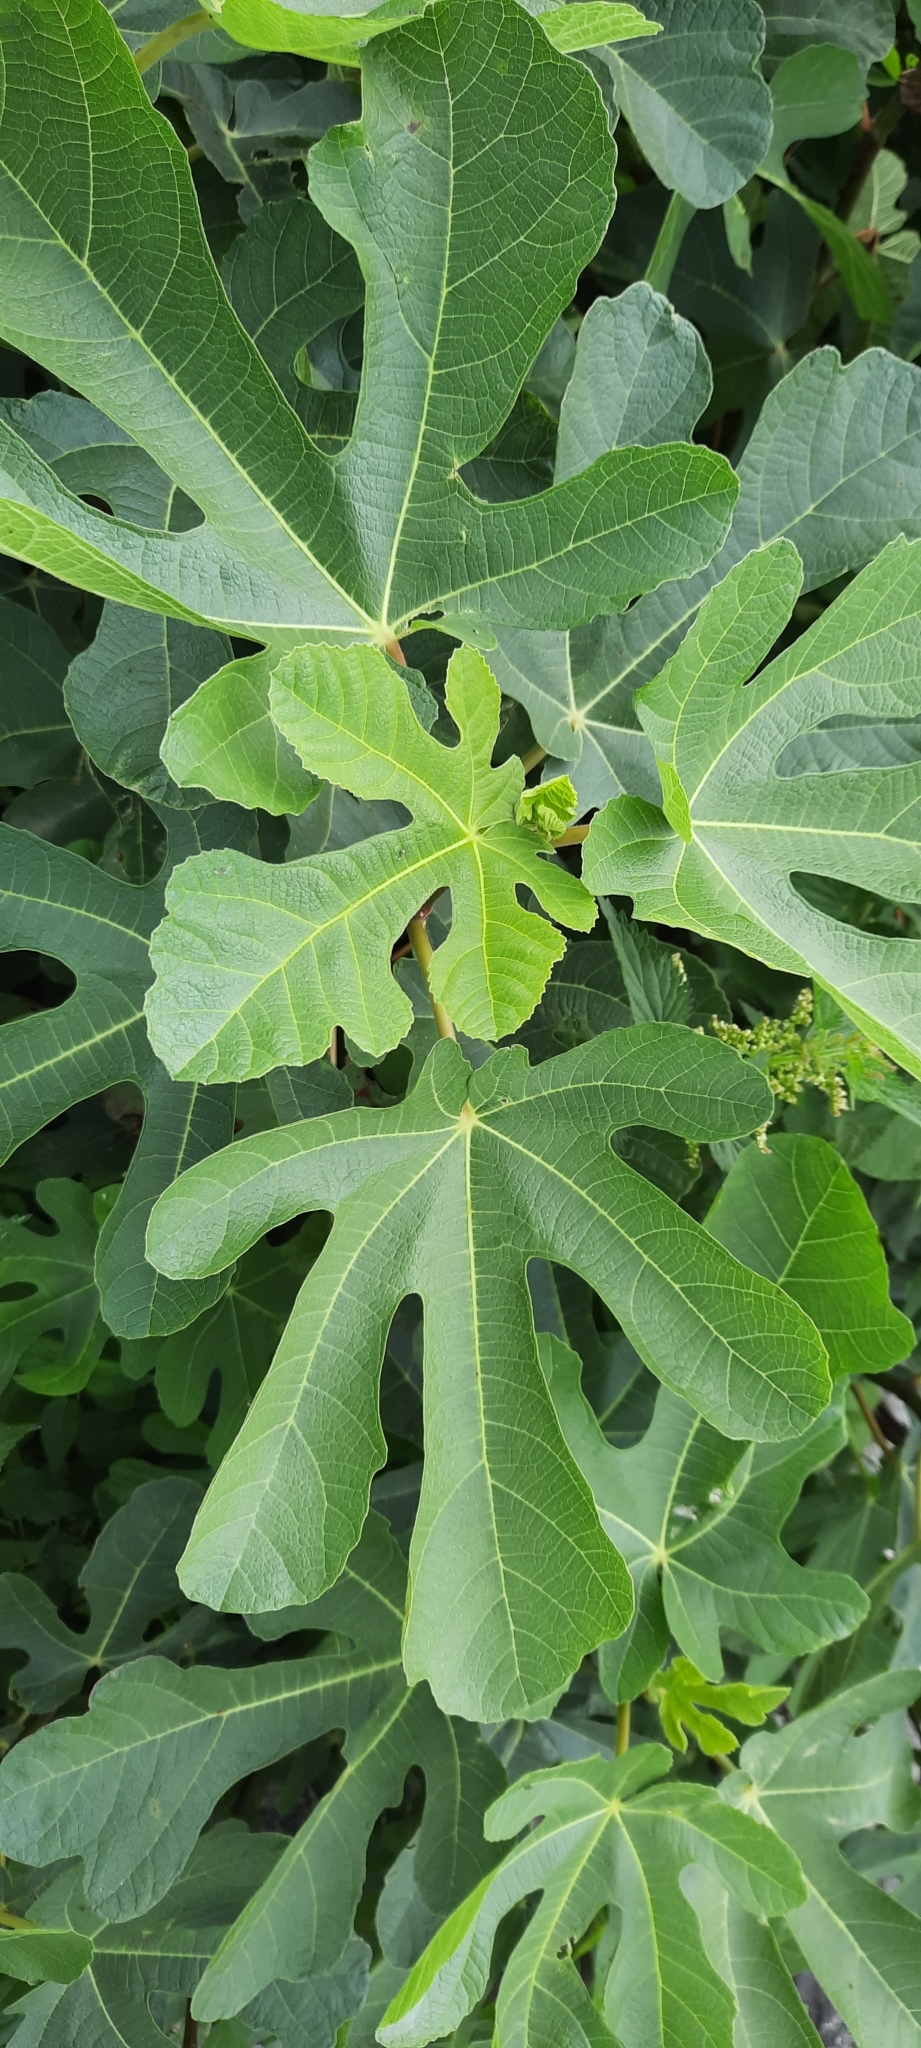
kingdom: Plantae
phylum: Tracheophyta
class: Magnoliopsida
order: Rosales
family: Moraceae
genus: Ficus
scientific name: Ficus carica
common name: Fig
